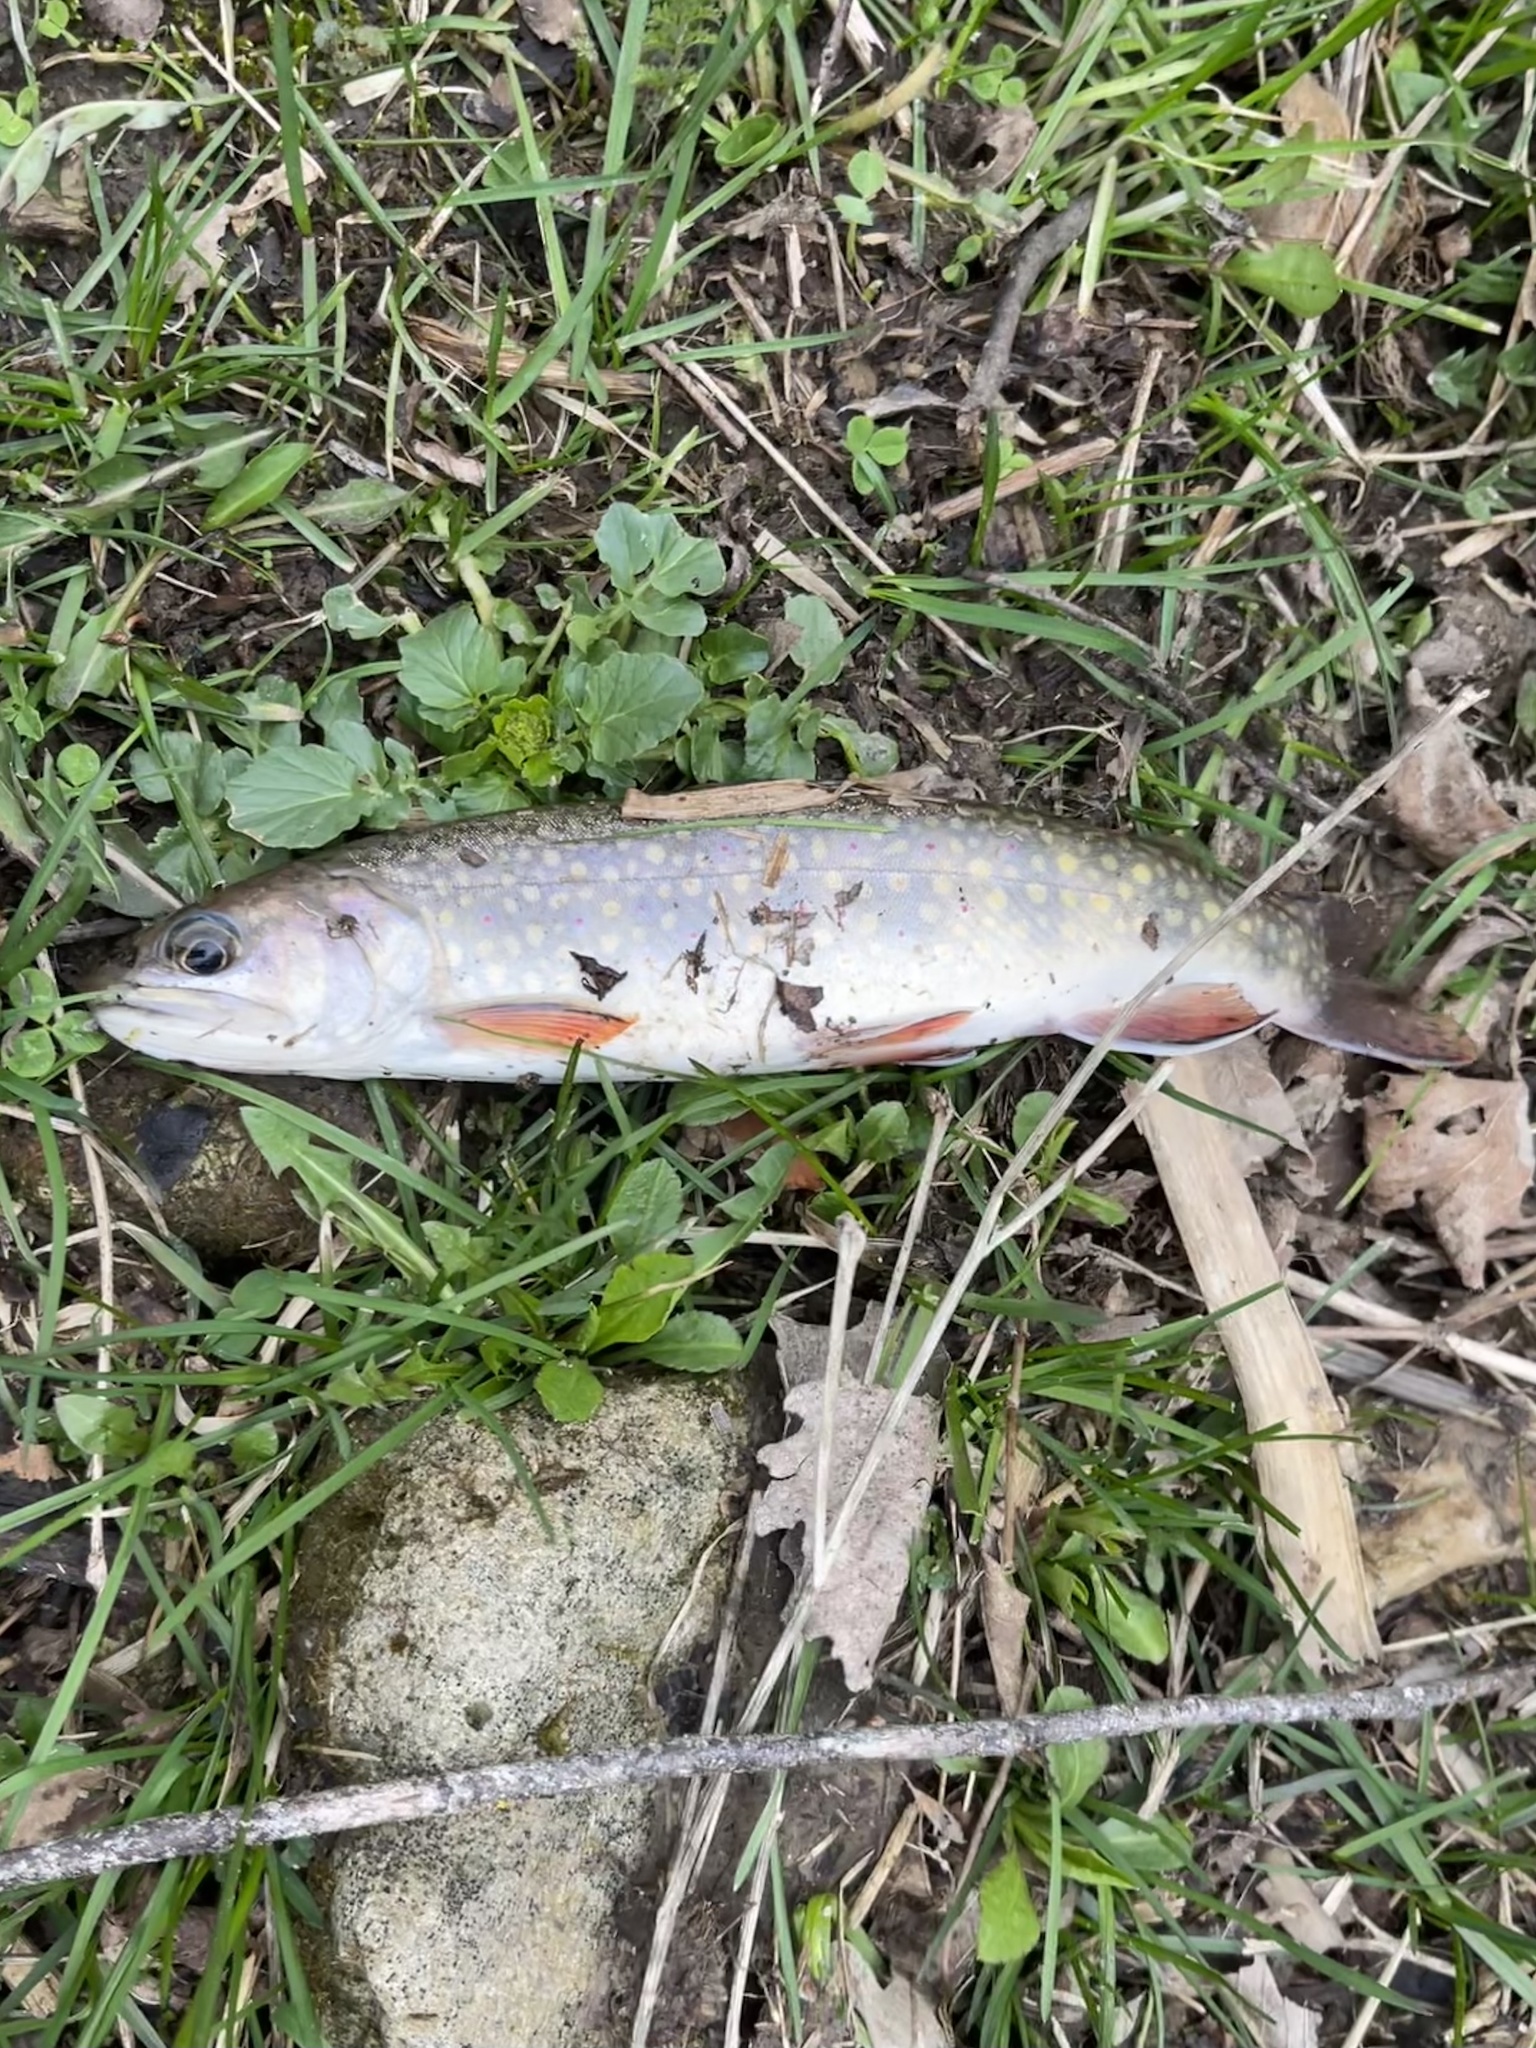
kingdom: Animalia
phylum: Chordata
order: Salmoniformes
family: Salmonidae
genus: Salvelinus
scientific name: Salvelinus fontinalis
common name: Brook trout
